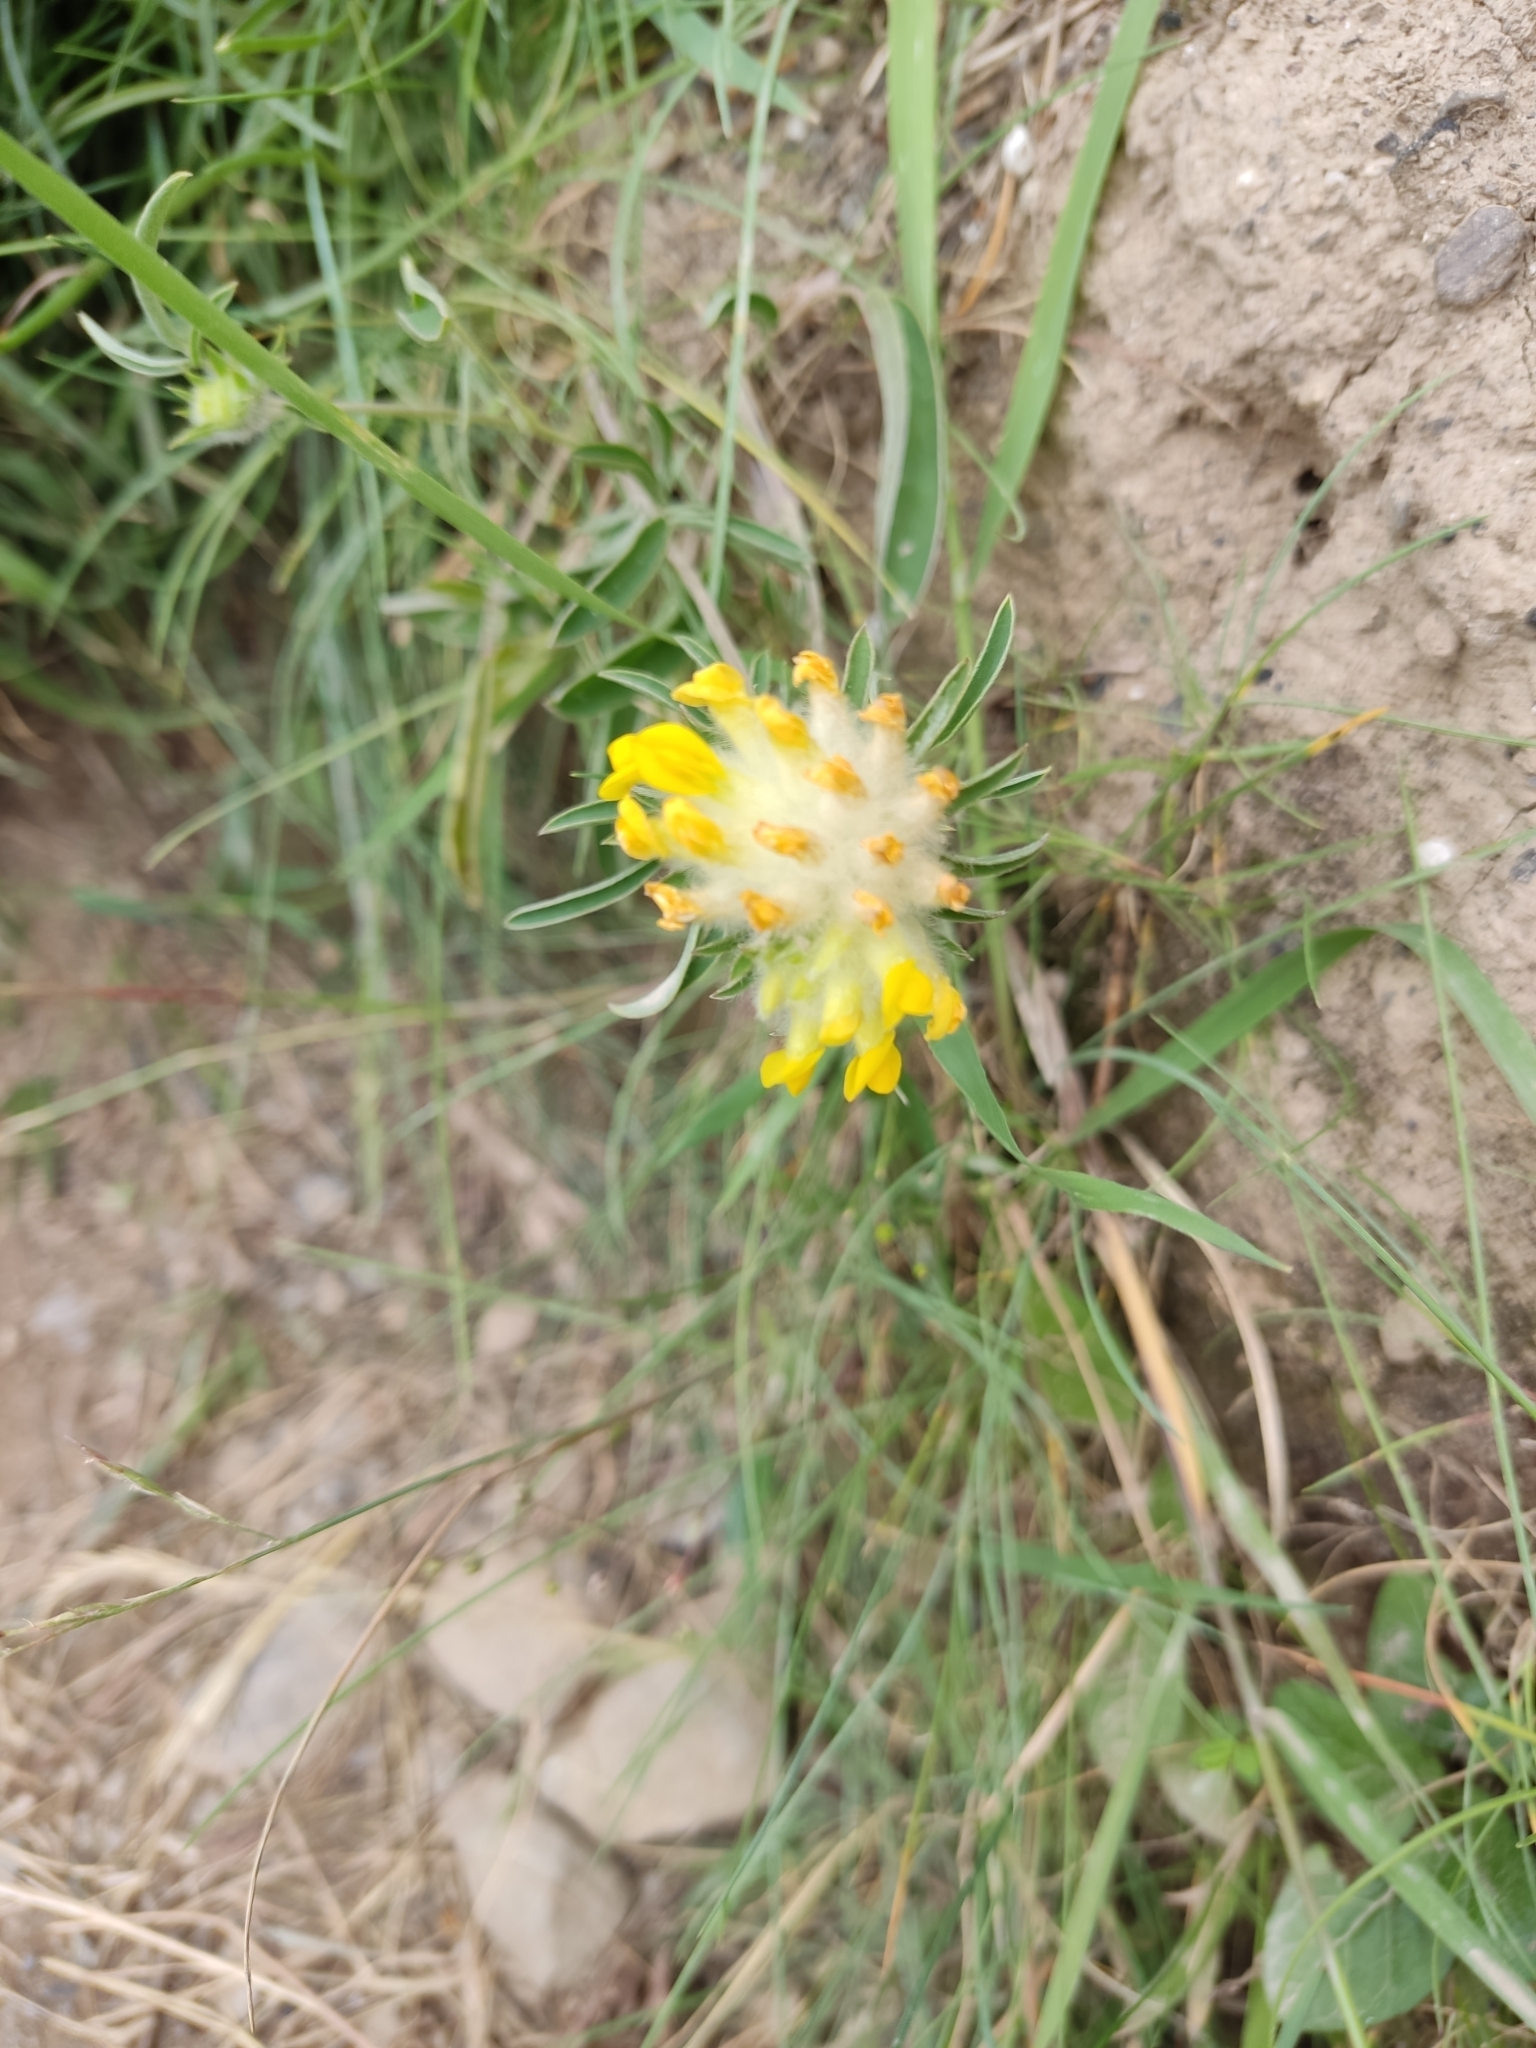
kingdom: Plantae
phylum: Tracheophyta
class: Magnoliopsida
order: Fabales
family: Fabaceae
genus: Anthyllis
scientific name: Anthyllis vulneraria
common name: Kidney vetch
